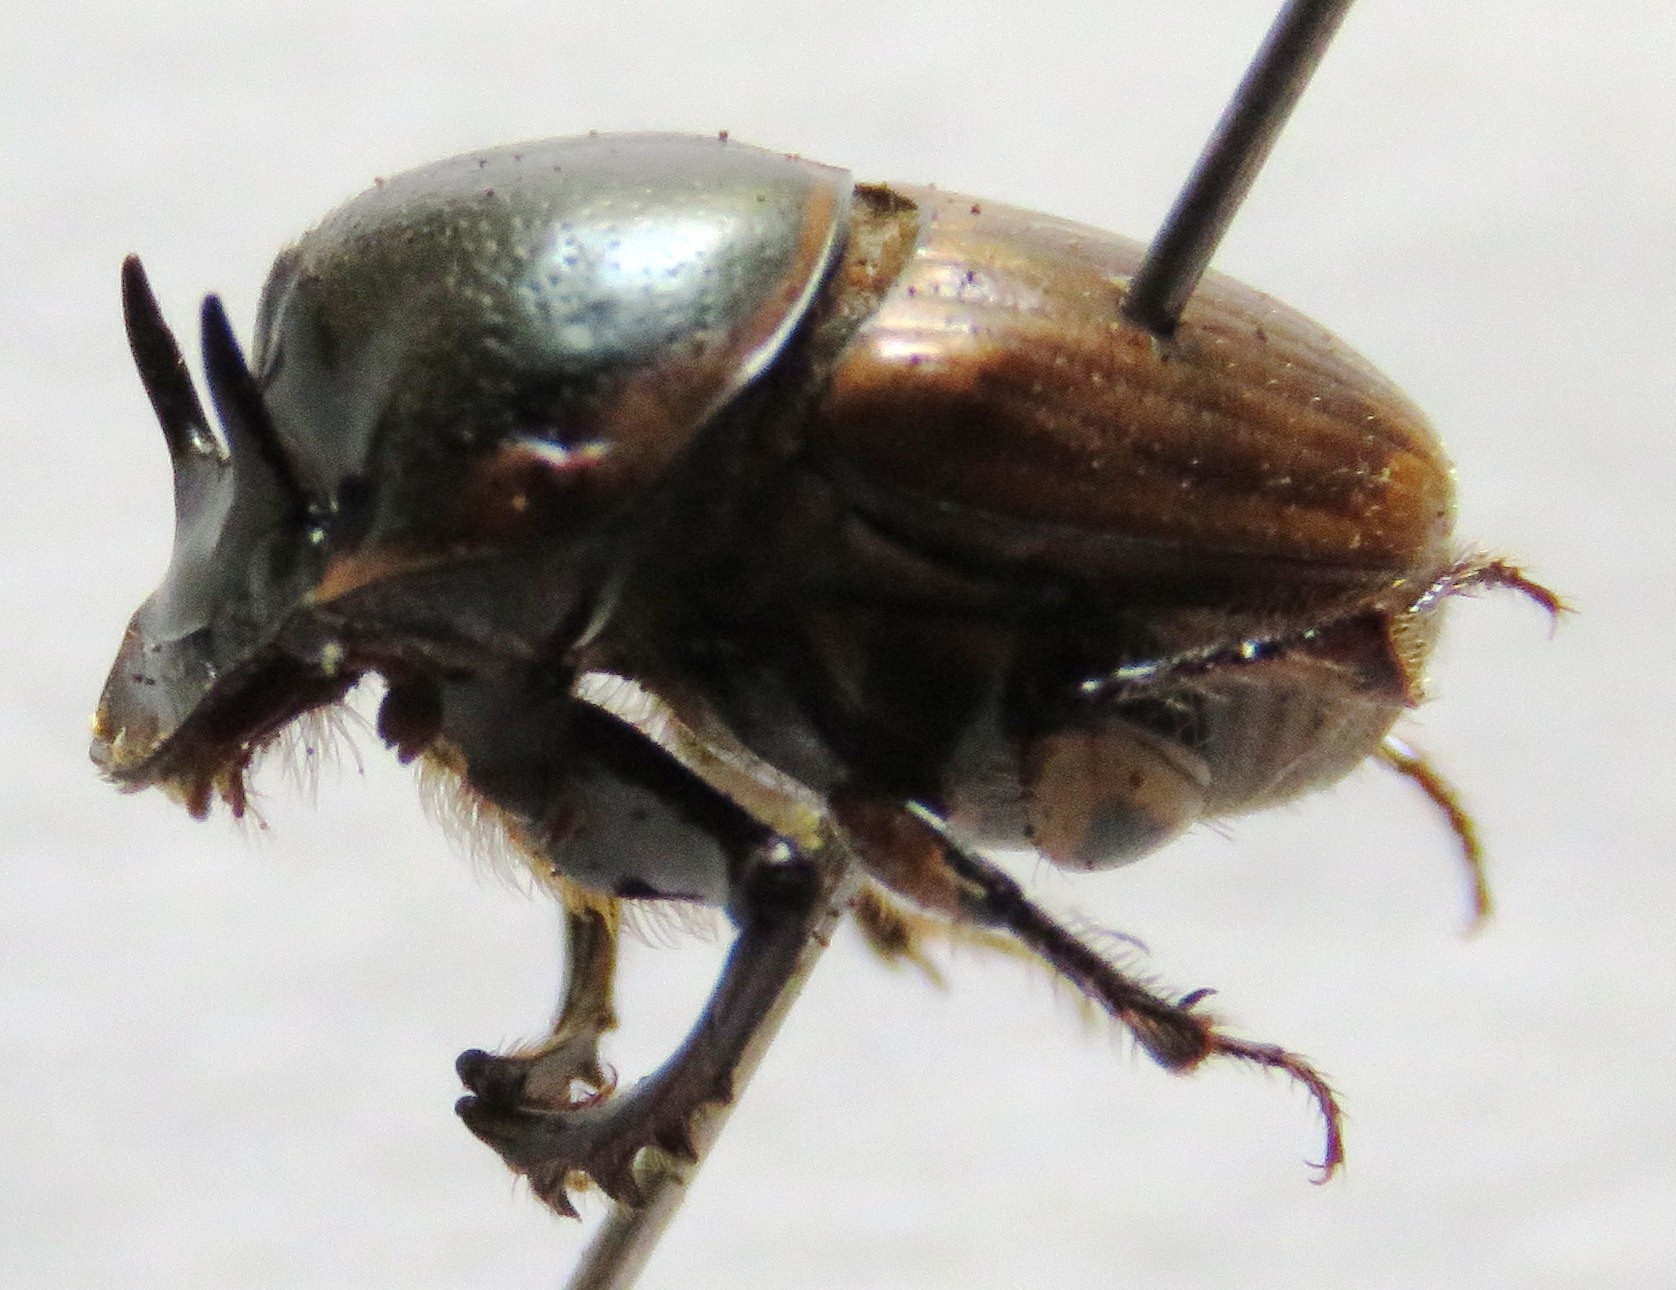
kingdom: Animalia
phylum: Arthropoda
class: Insecta
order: Coleoptera
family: Scarabaeidae
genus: Digitonthophagus
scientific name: Digitonthophagus gazella
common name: Brown dung beetle
